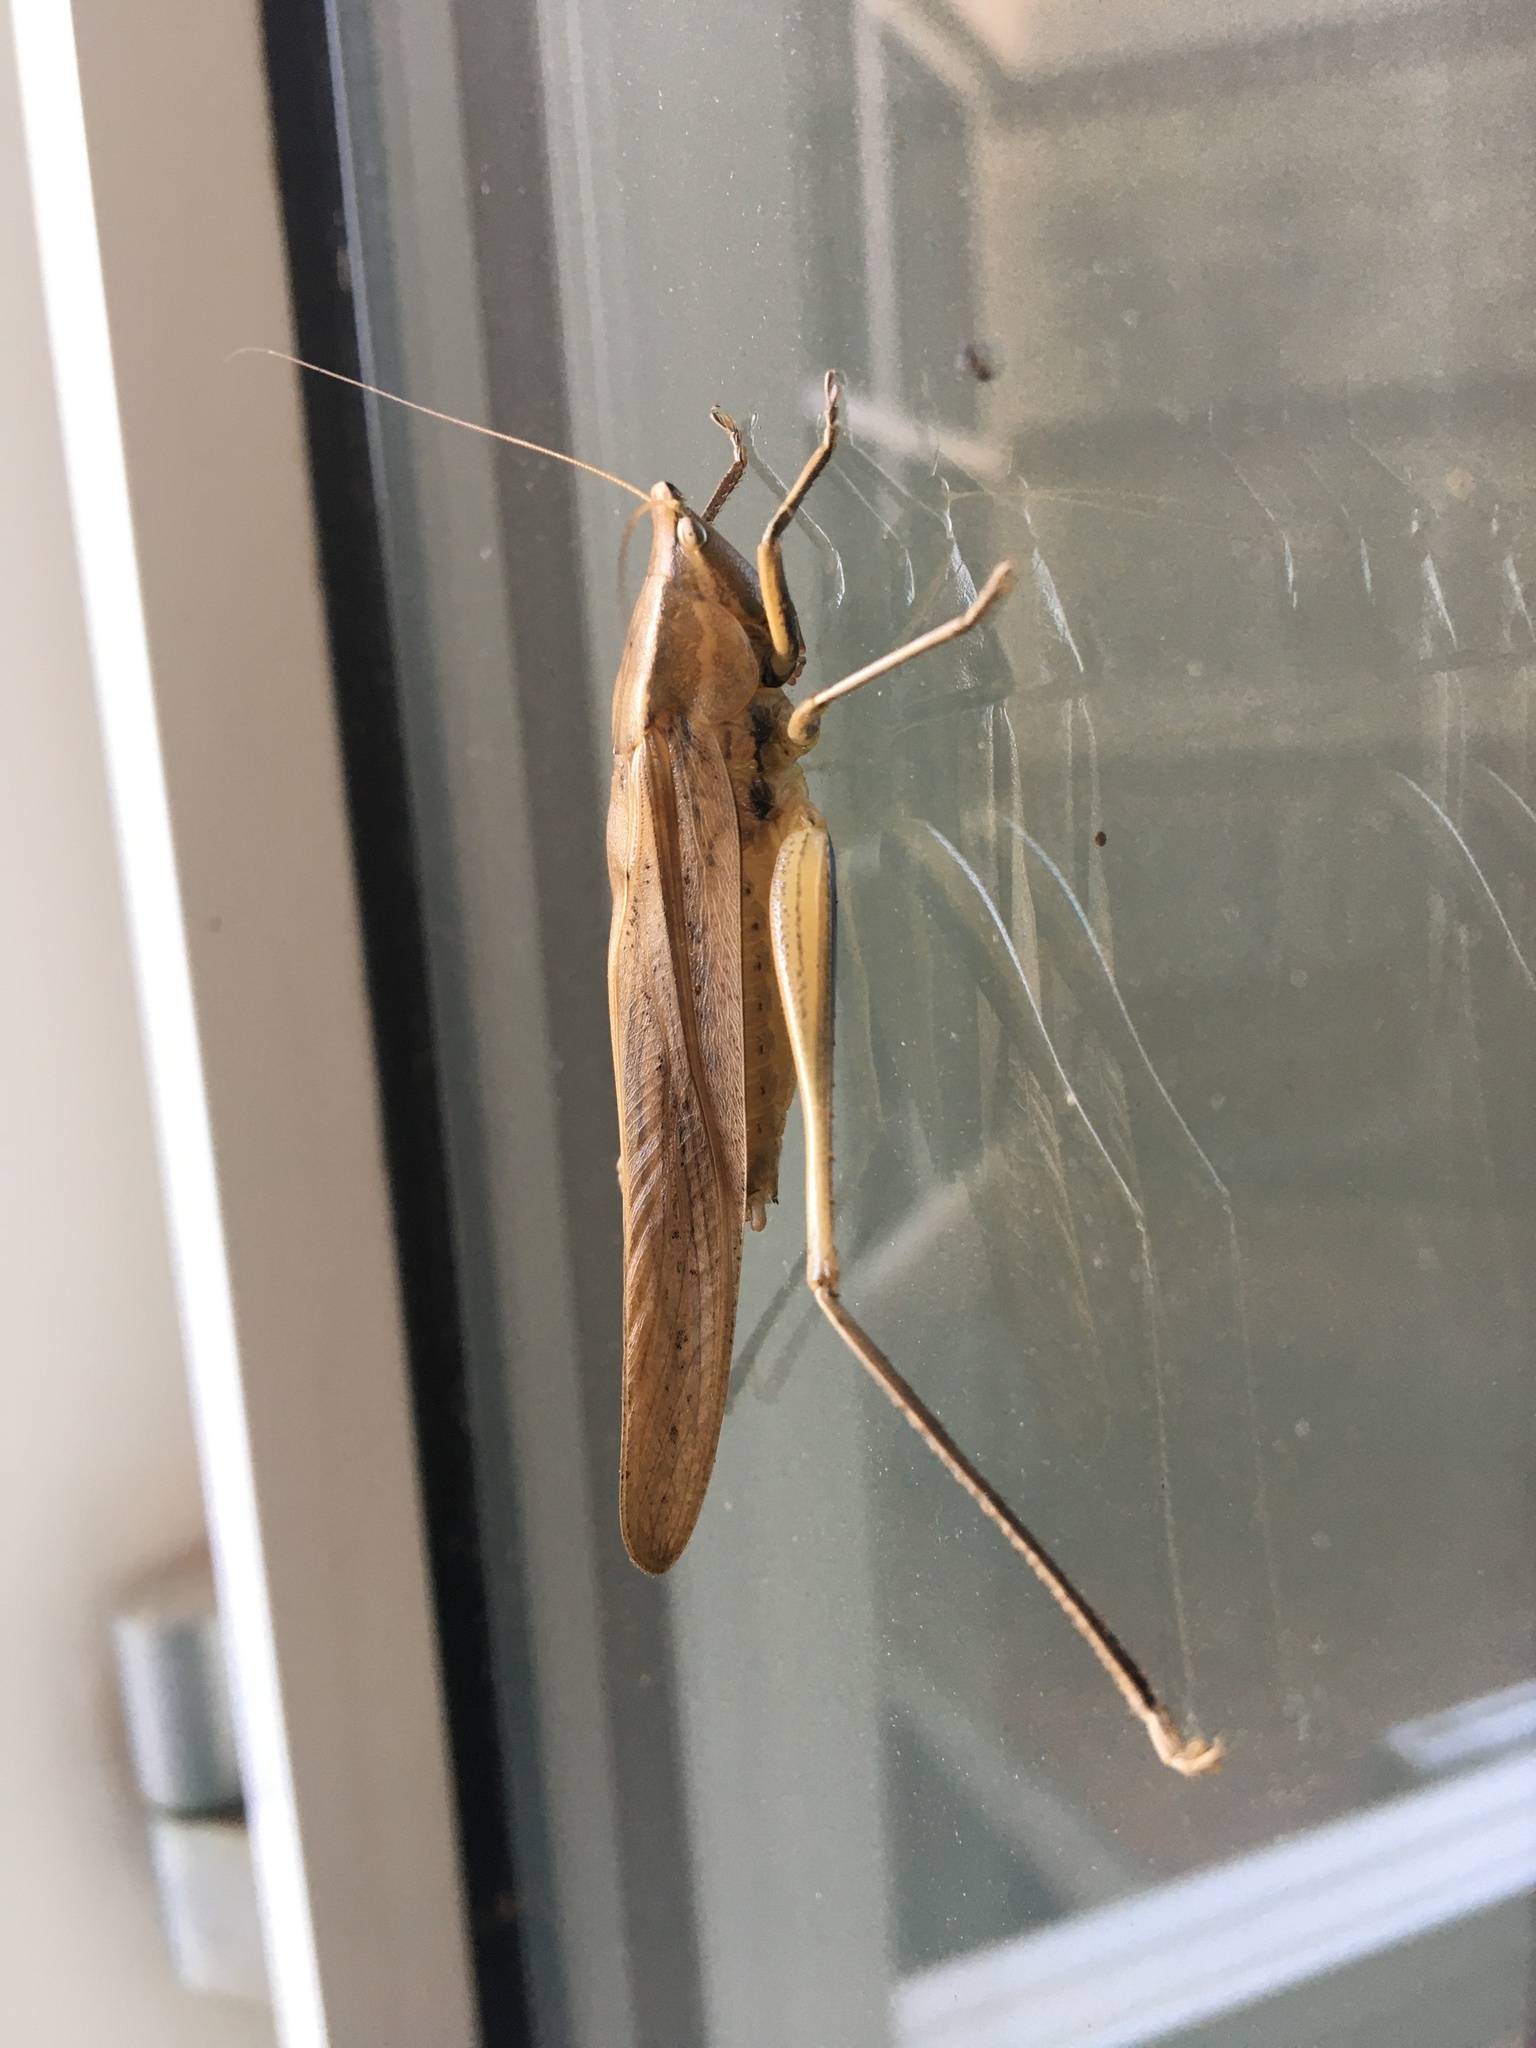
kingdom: Animalia
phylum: Arthropoda
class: Insecta
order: Orthoptera
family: Tettigoniidae
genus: Neoconocephalus
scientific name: Neoconocephalus triops
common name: Broad-tipped conehead
